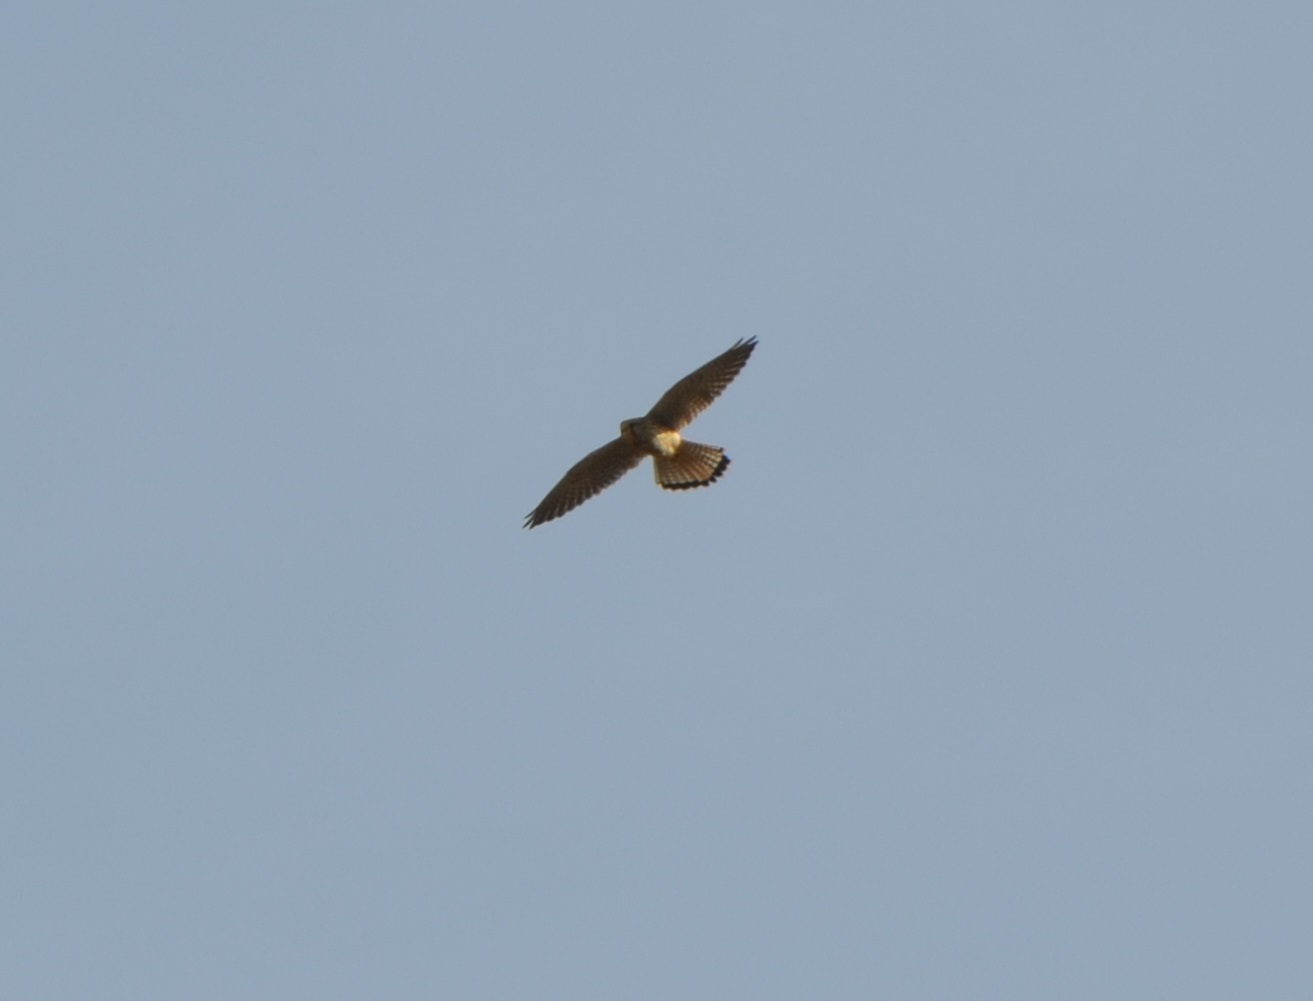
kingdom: Animalia
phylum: Chordata
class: Aves
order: Falconiformes
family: Falconidae
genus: Falco
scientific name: Falco tinnunculus
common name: Common kestrel
